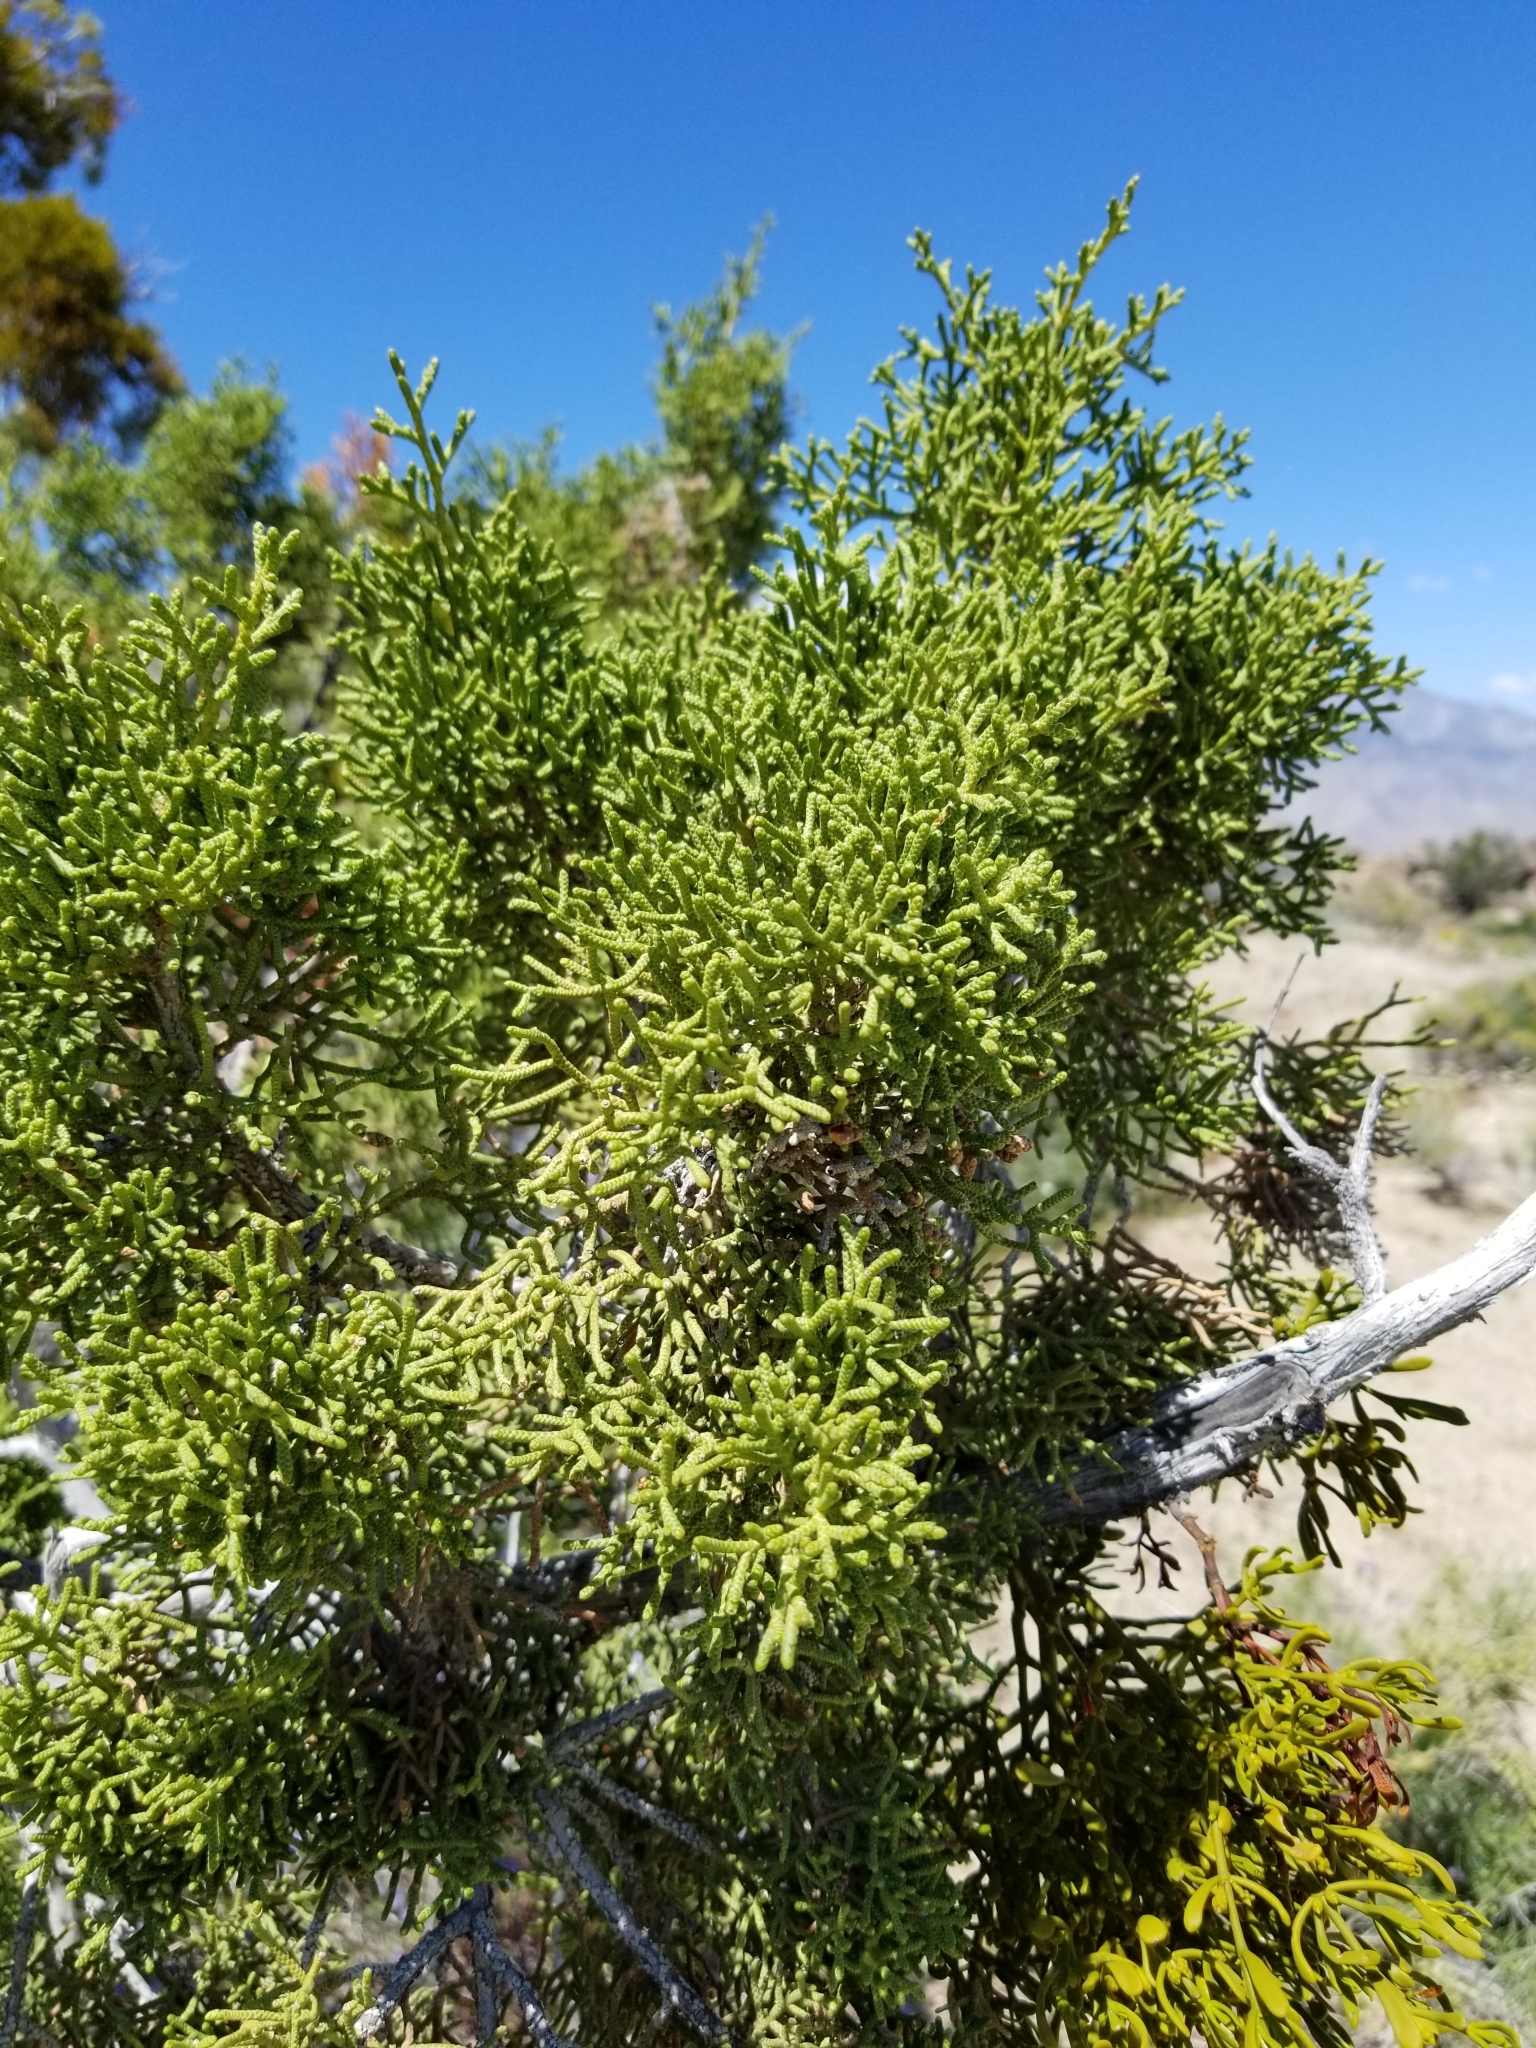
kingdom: Plantae
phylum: Tracheophyta
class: Pinopsida
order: Pinales
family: Cupressaceae
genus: Juniperus
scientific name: Juniperus californica
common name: California juniper
